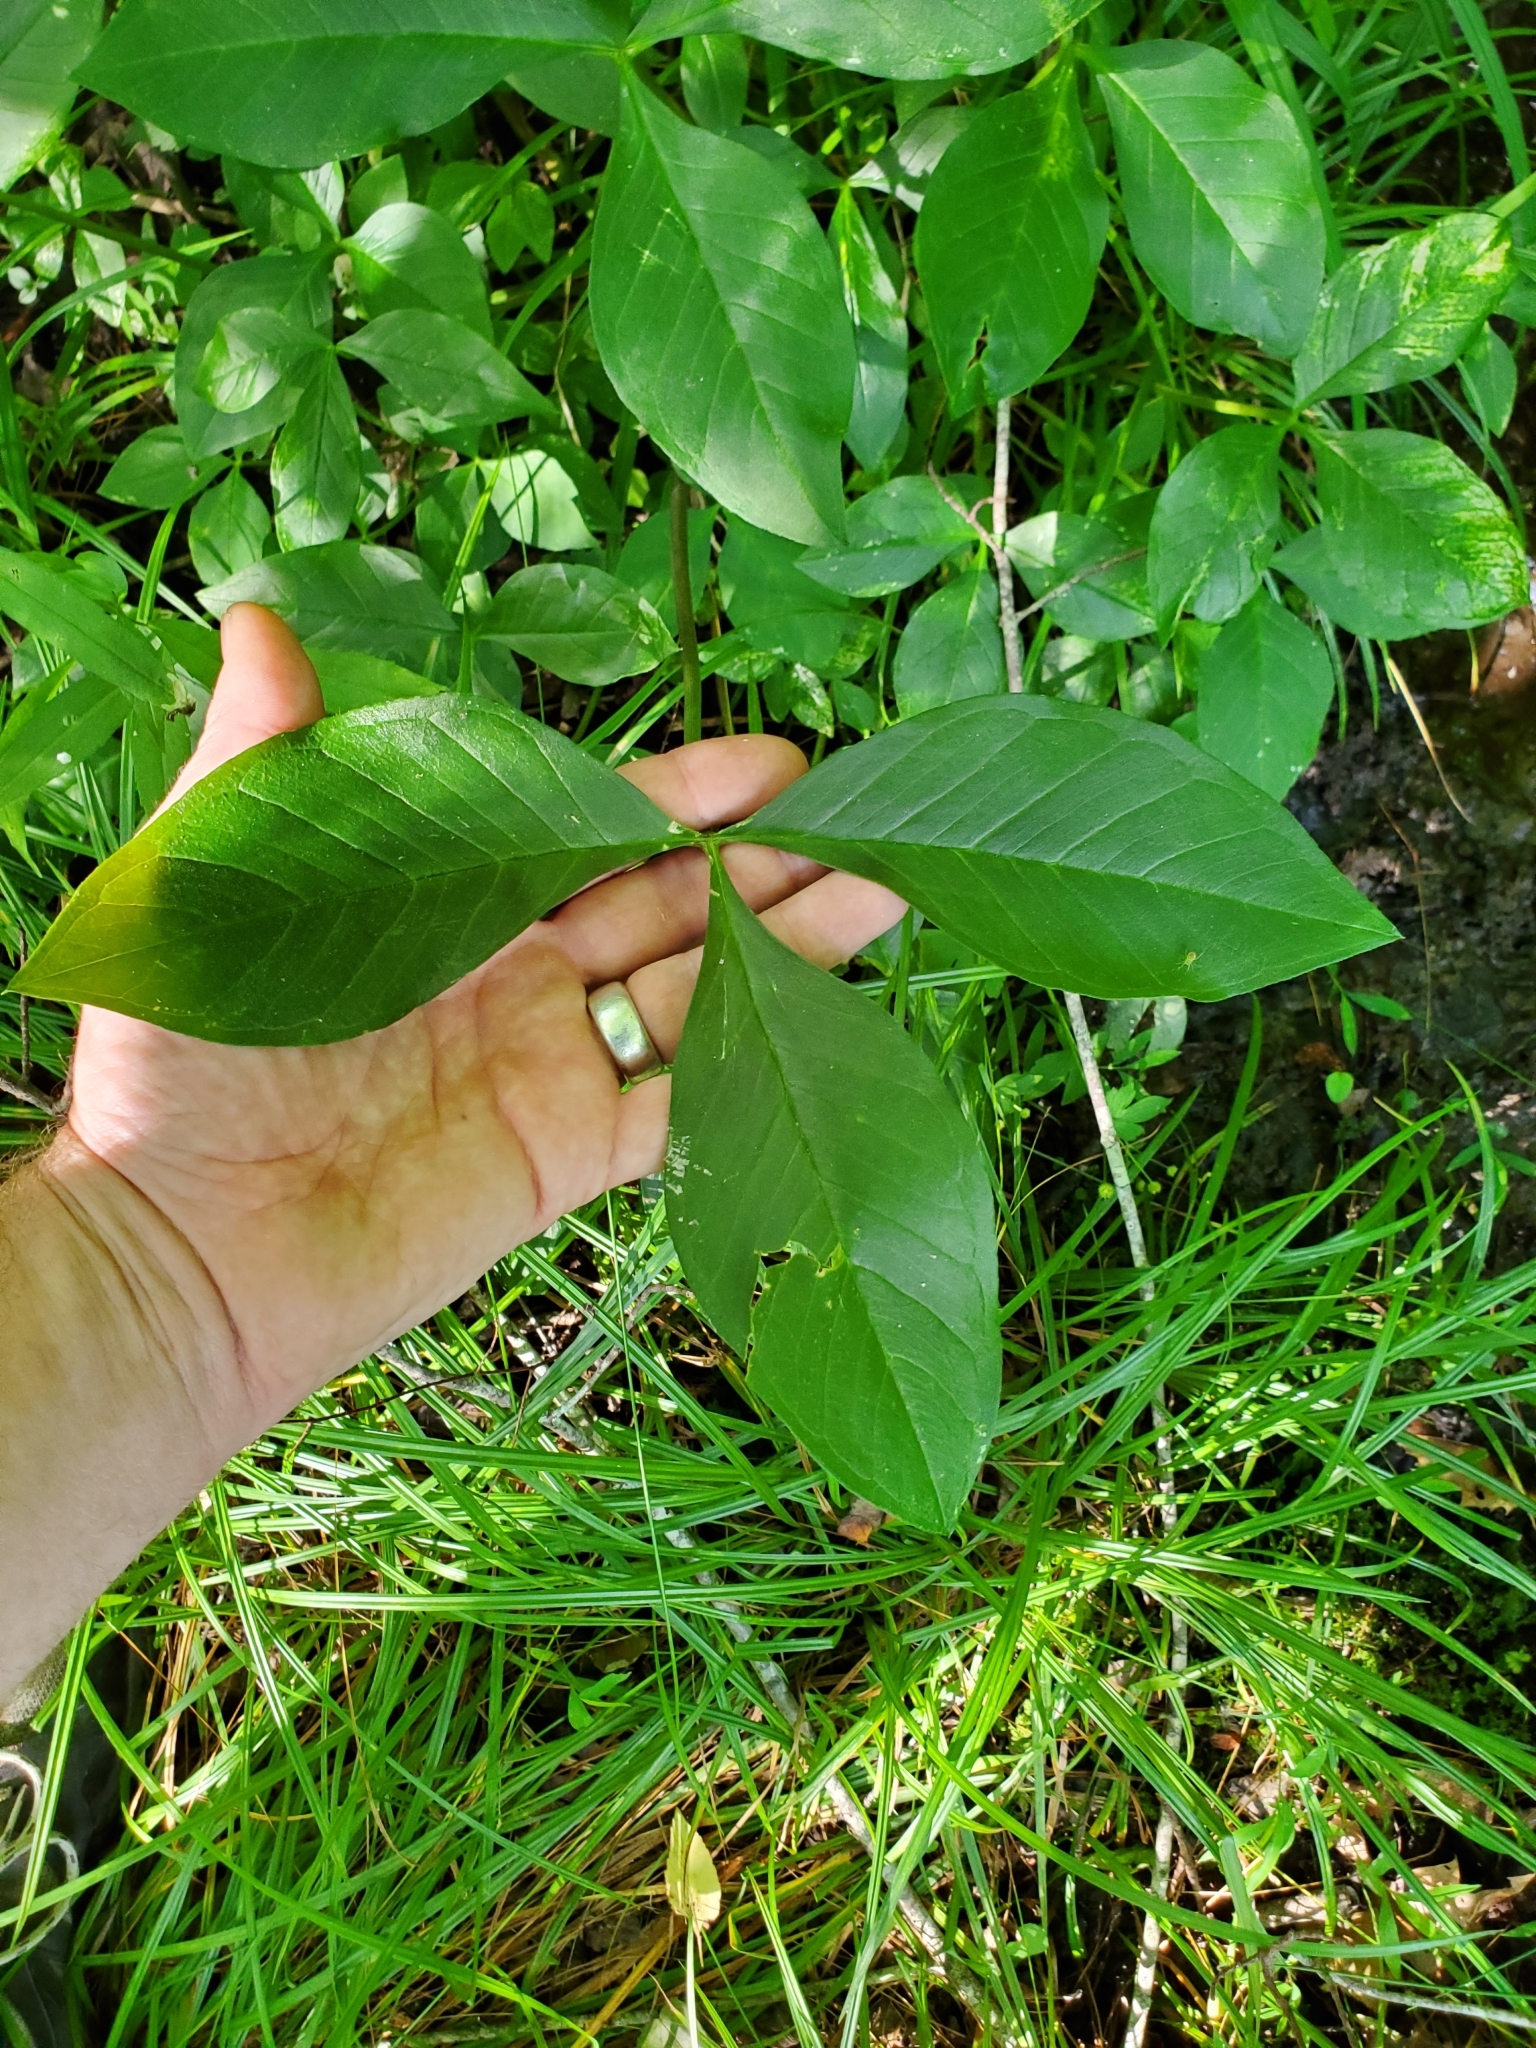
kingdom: Plantae
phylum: Tracheophyta
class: Liliopsida
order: Alismatales
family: Araceae
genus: Arisaema
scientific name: Arisaema triphyllum
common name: Jack-in-the-pulpit
